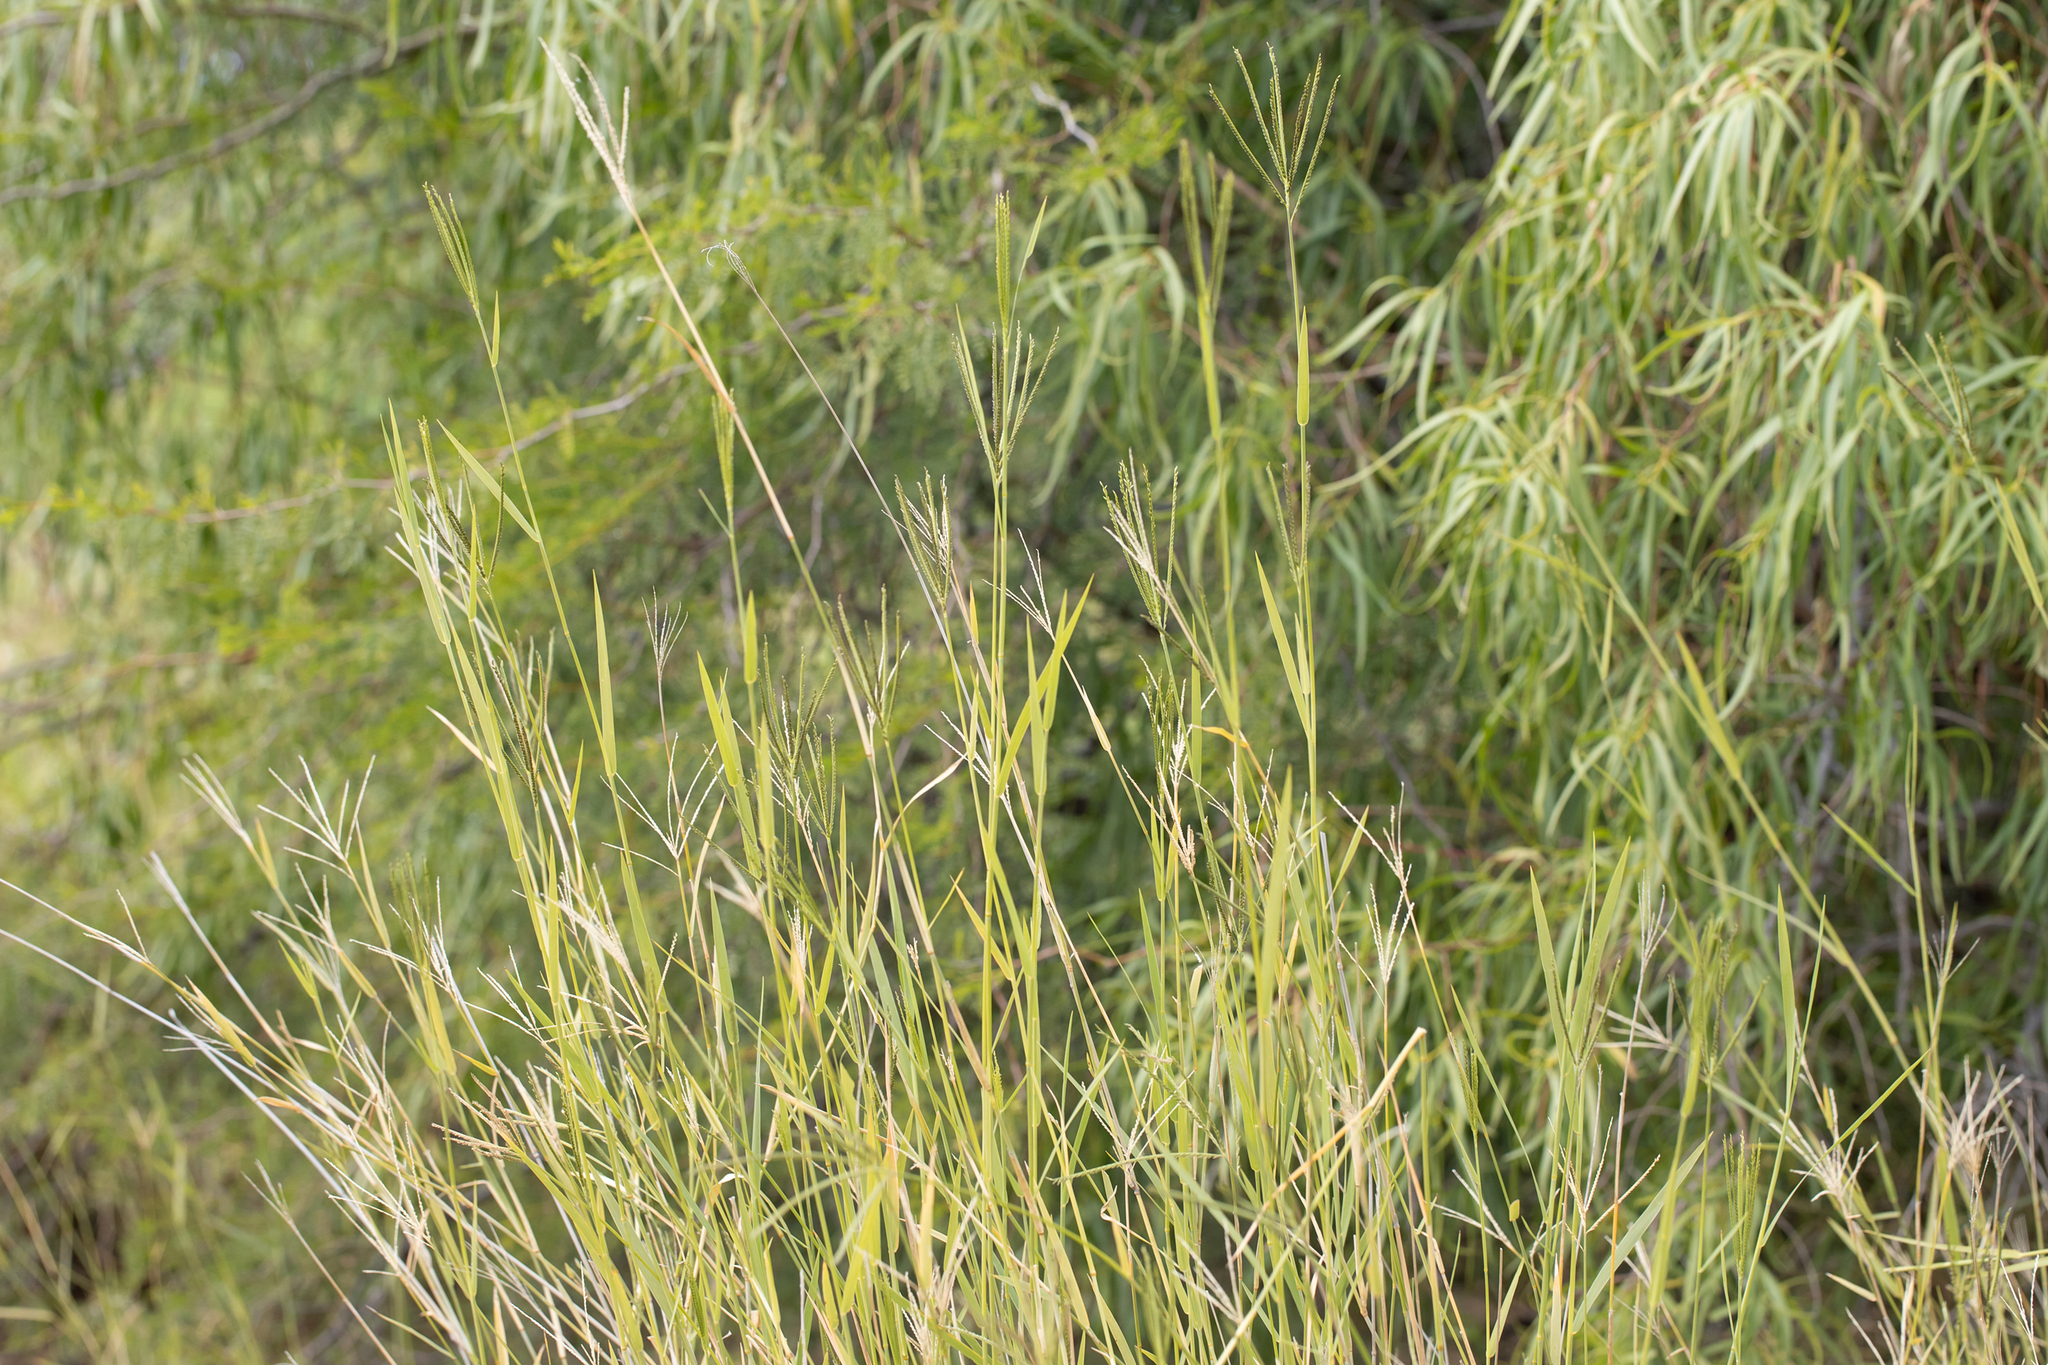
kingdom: Plantae
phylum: Tracheophyta
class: Liliopsida
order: Poales
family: Poaceae
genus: Leptochloa
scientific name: Leptochloa digitata
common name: Finger sprangletop
